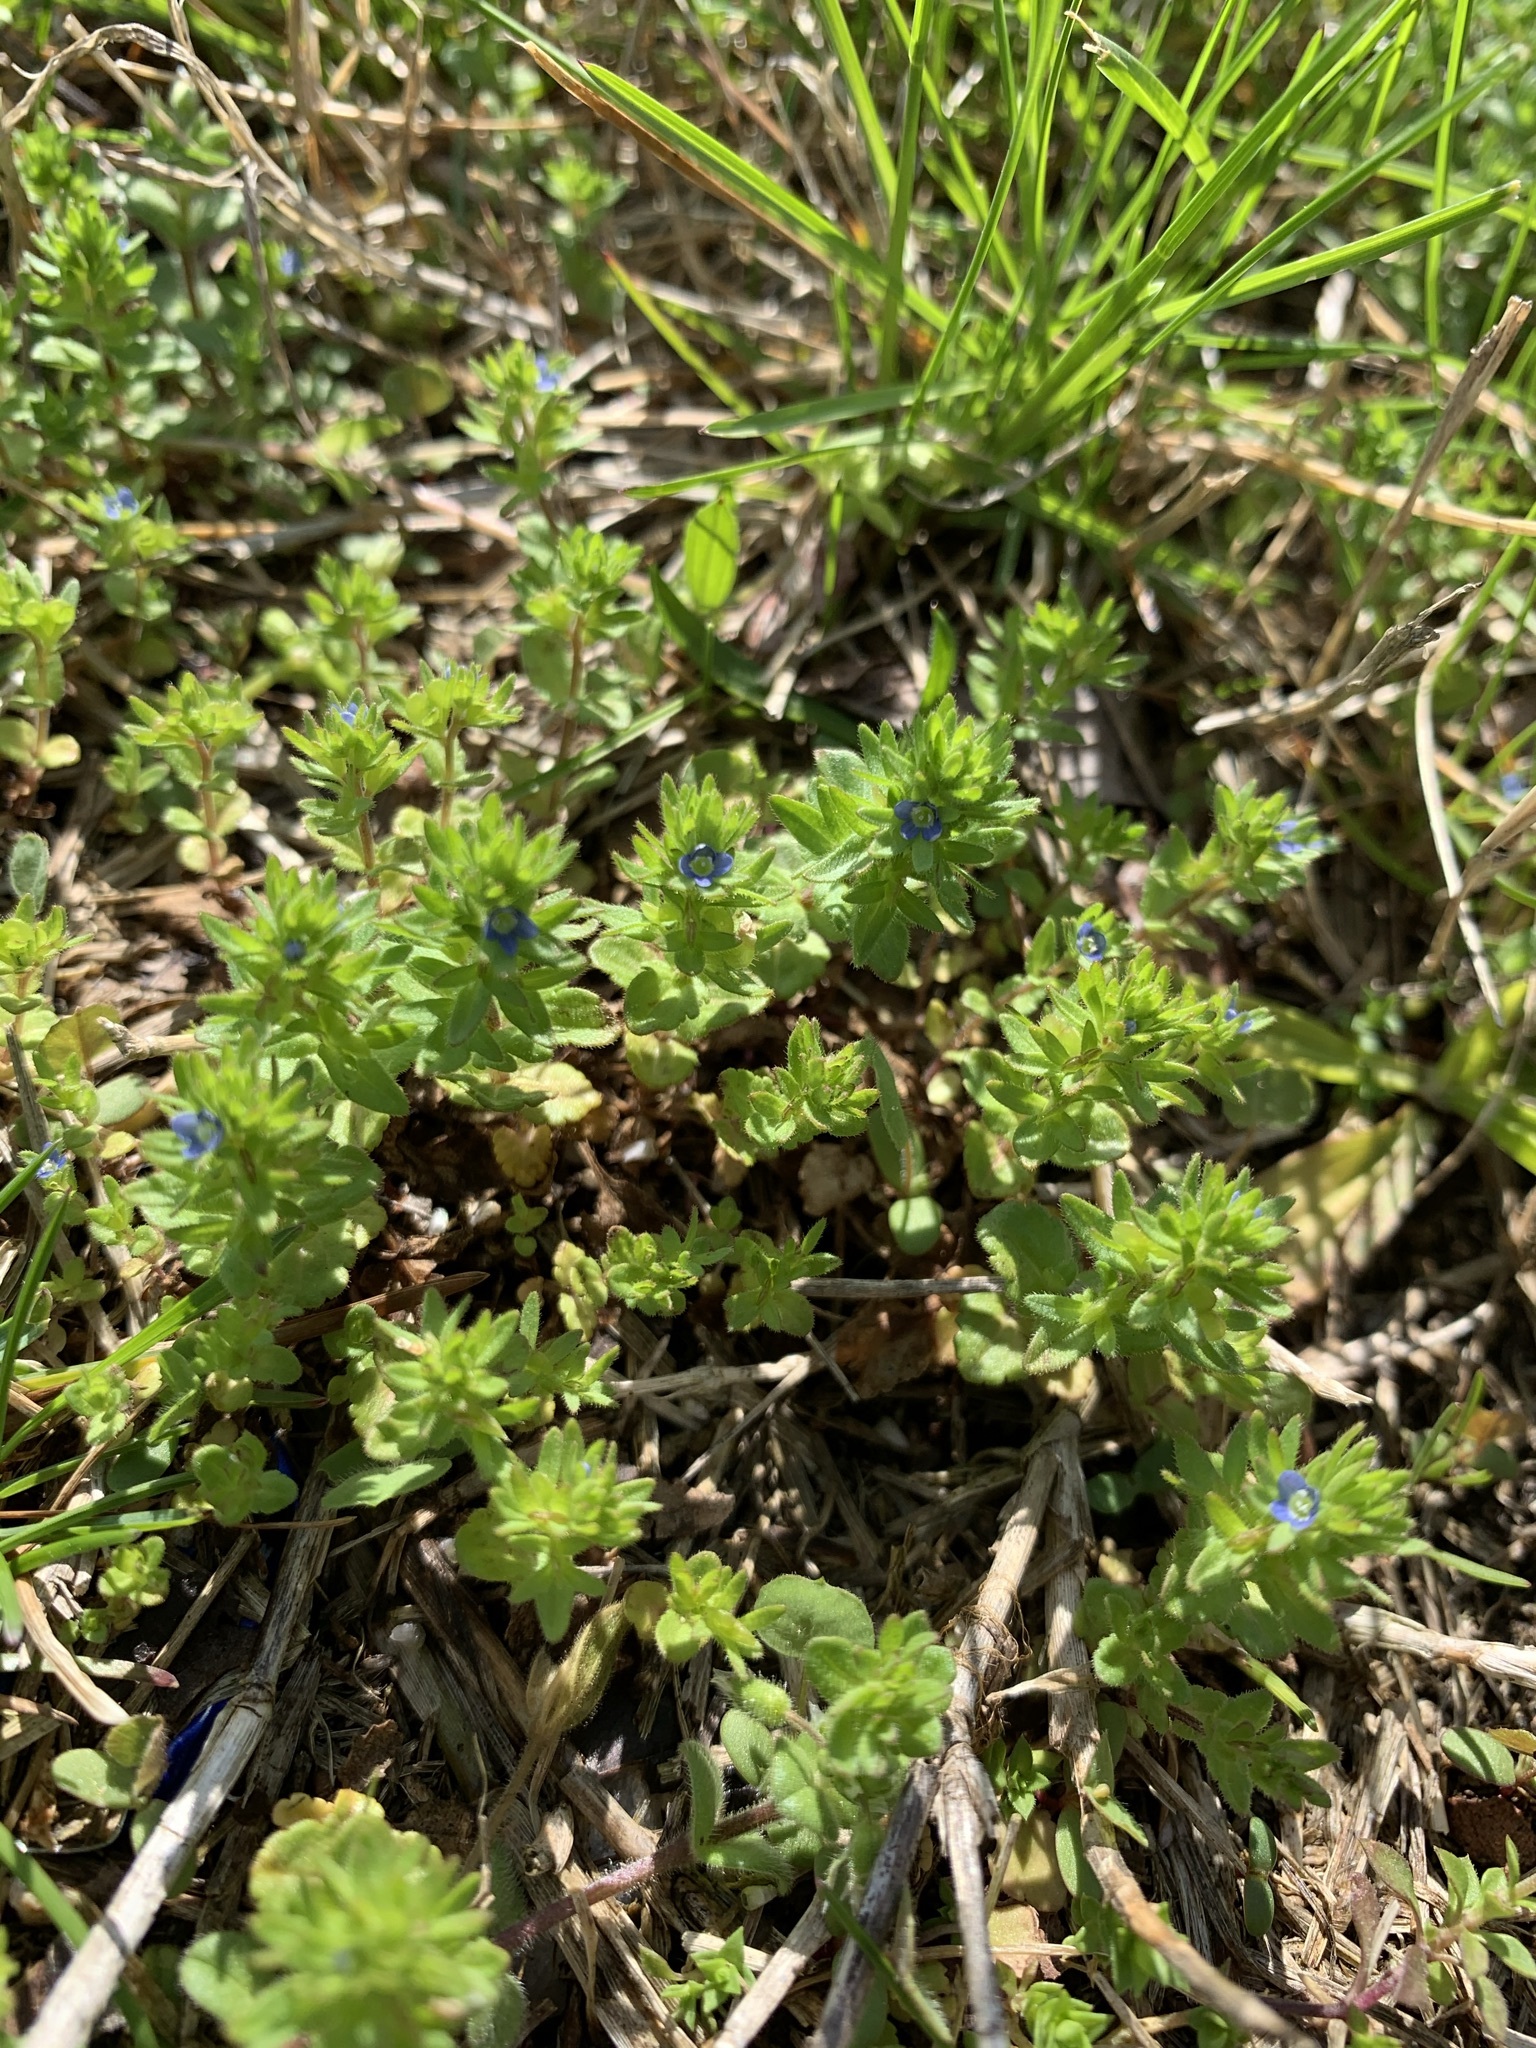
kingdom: Plantae
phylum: Tracheophyta
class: Magnoliopsida
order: Lamiales
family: Plantaginaceae
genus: Veronica
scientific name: Veronica arvensis
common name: Corn speedwell
